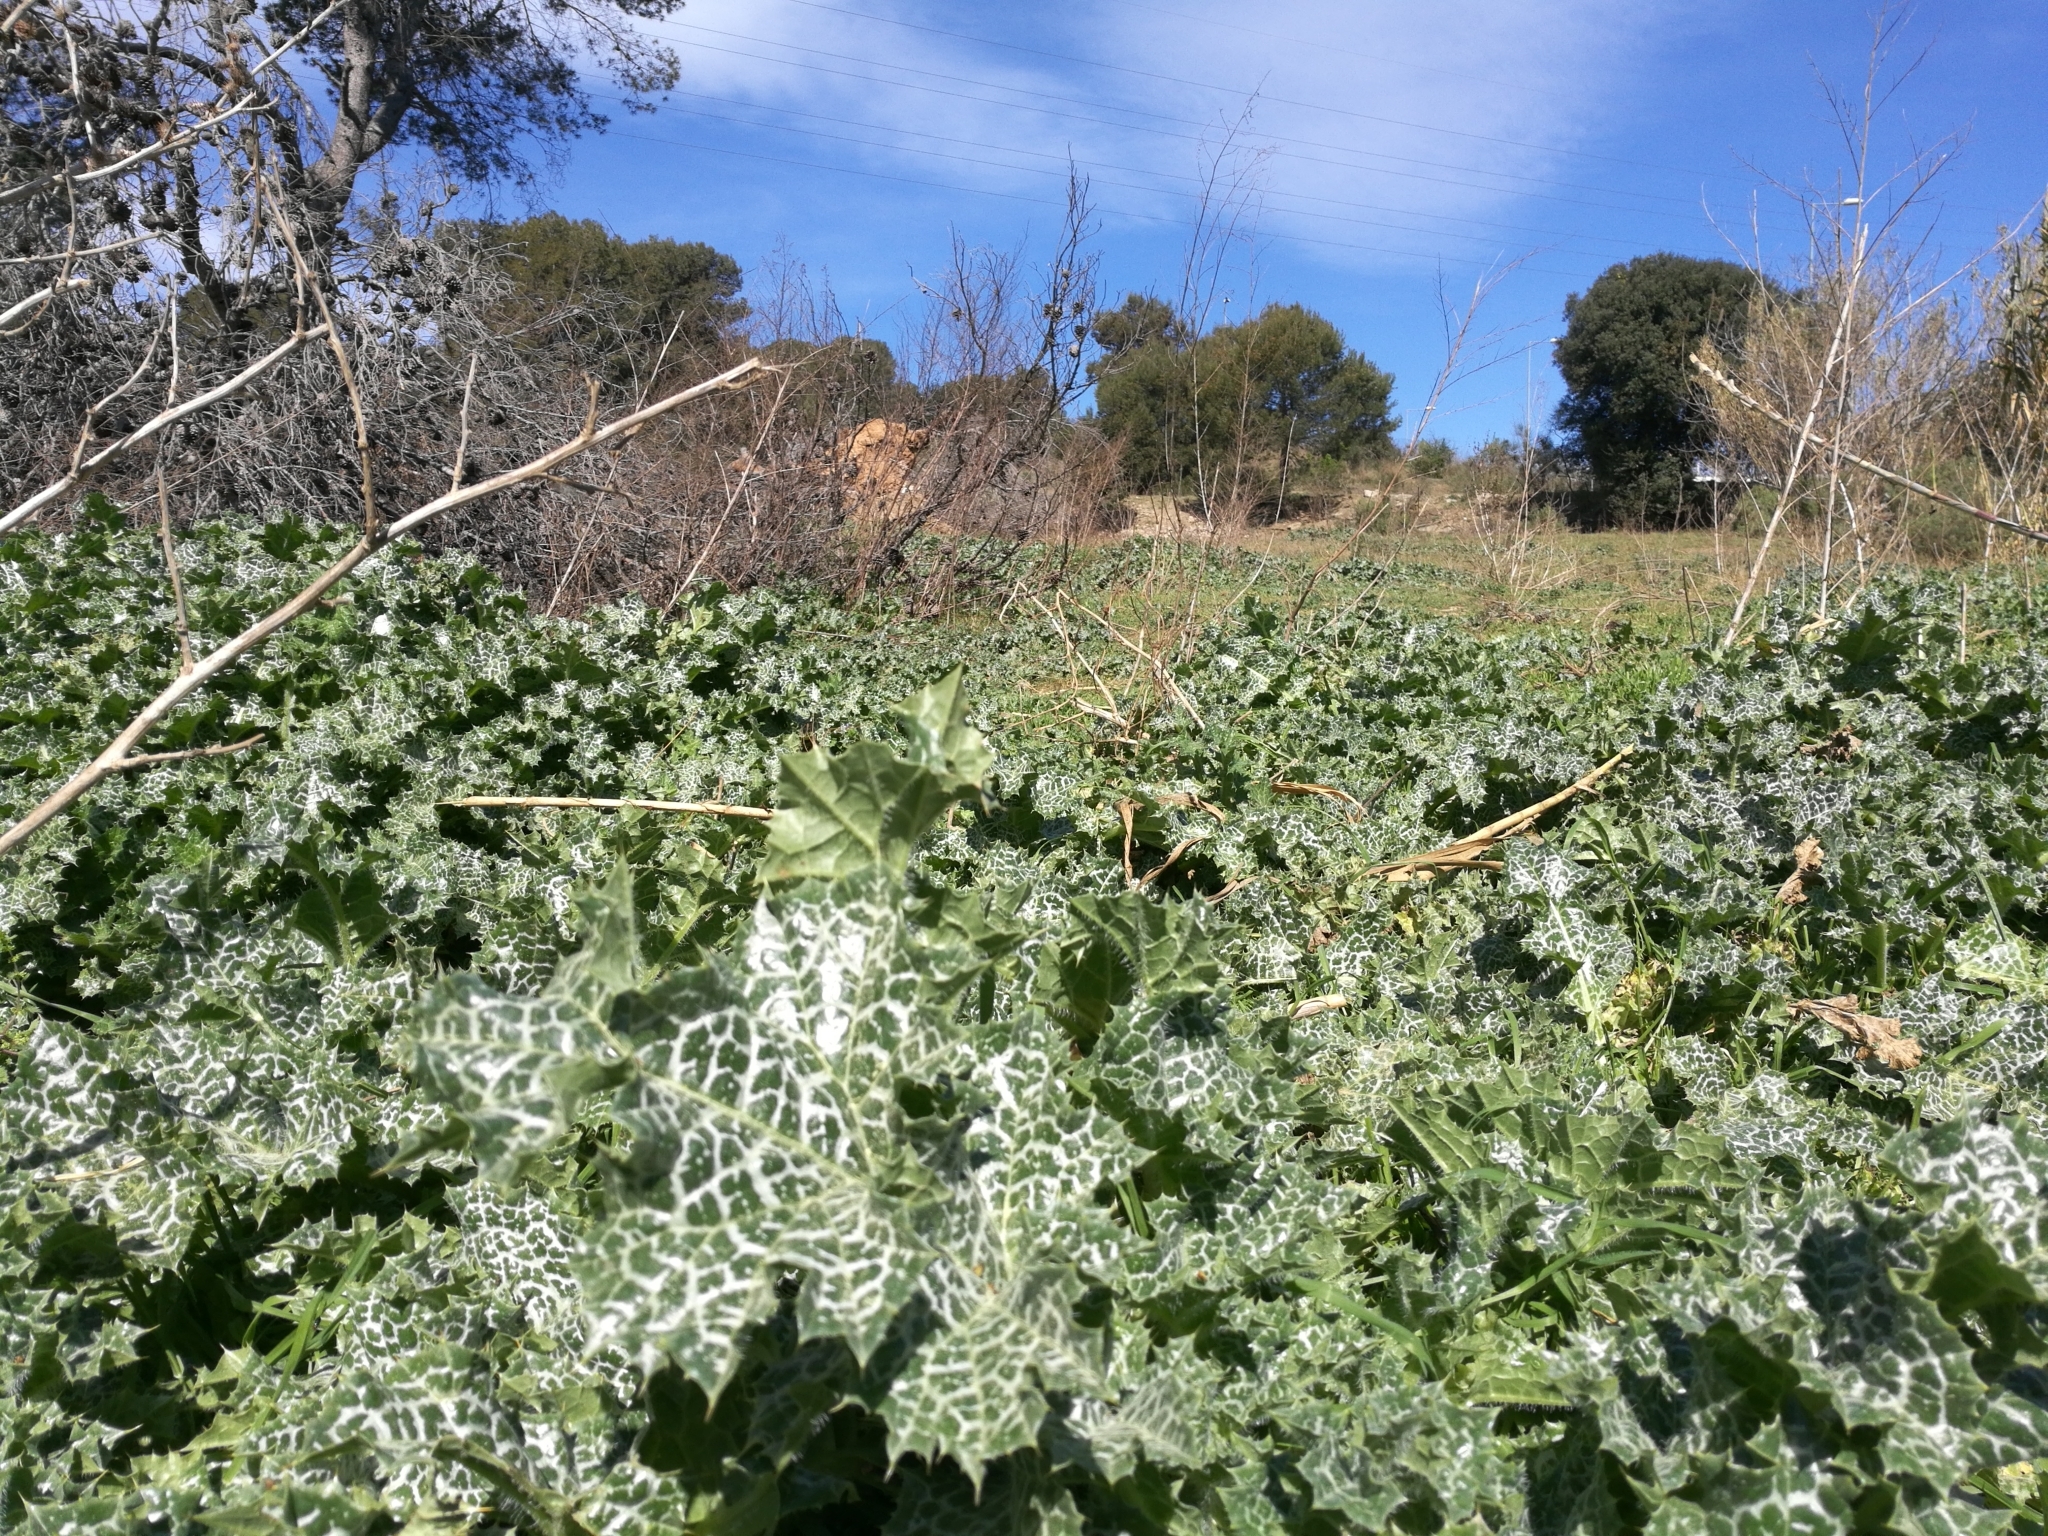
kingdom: Plantae
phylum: Tracheophyta
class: Magnoliopsida
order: Asterales
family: Asteraceae
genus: Silybum
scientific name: Silybum marianum
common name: Milk thistle
